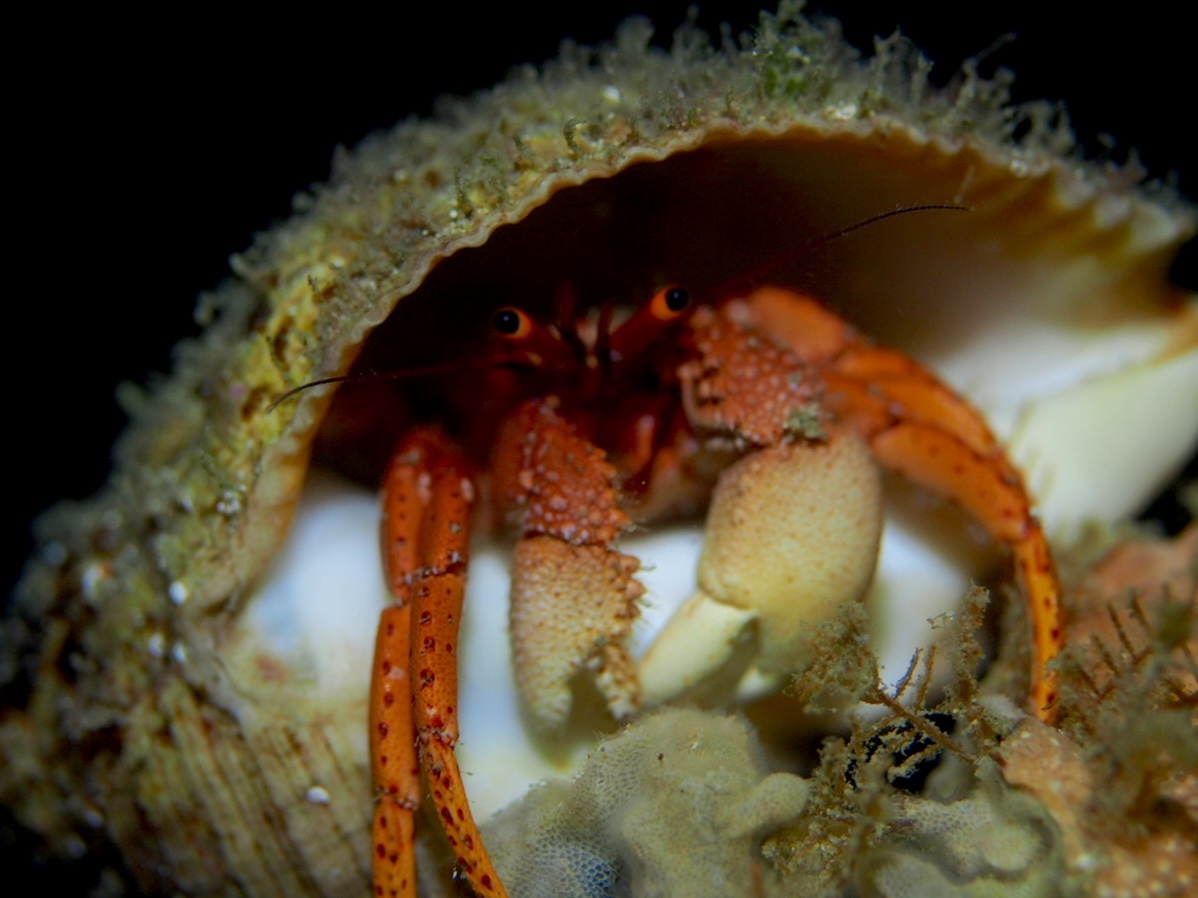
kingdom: Animalia
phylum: Arthropoda
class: Malacostraca
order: Decapoda
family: Diogenidae
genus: Paguristes
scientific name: Paguristes frontalis
